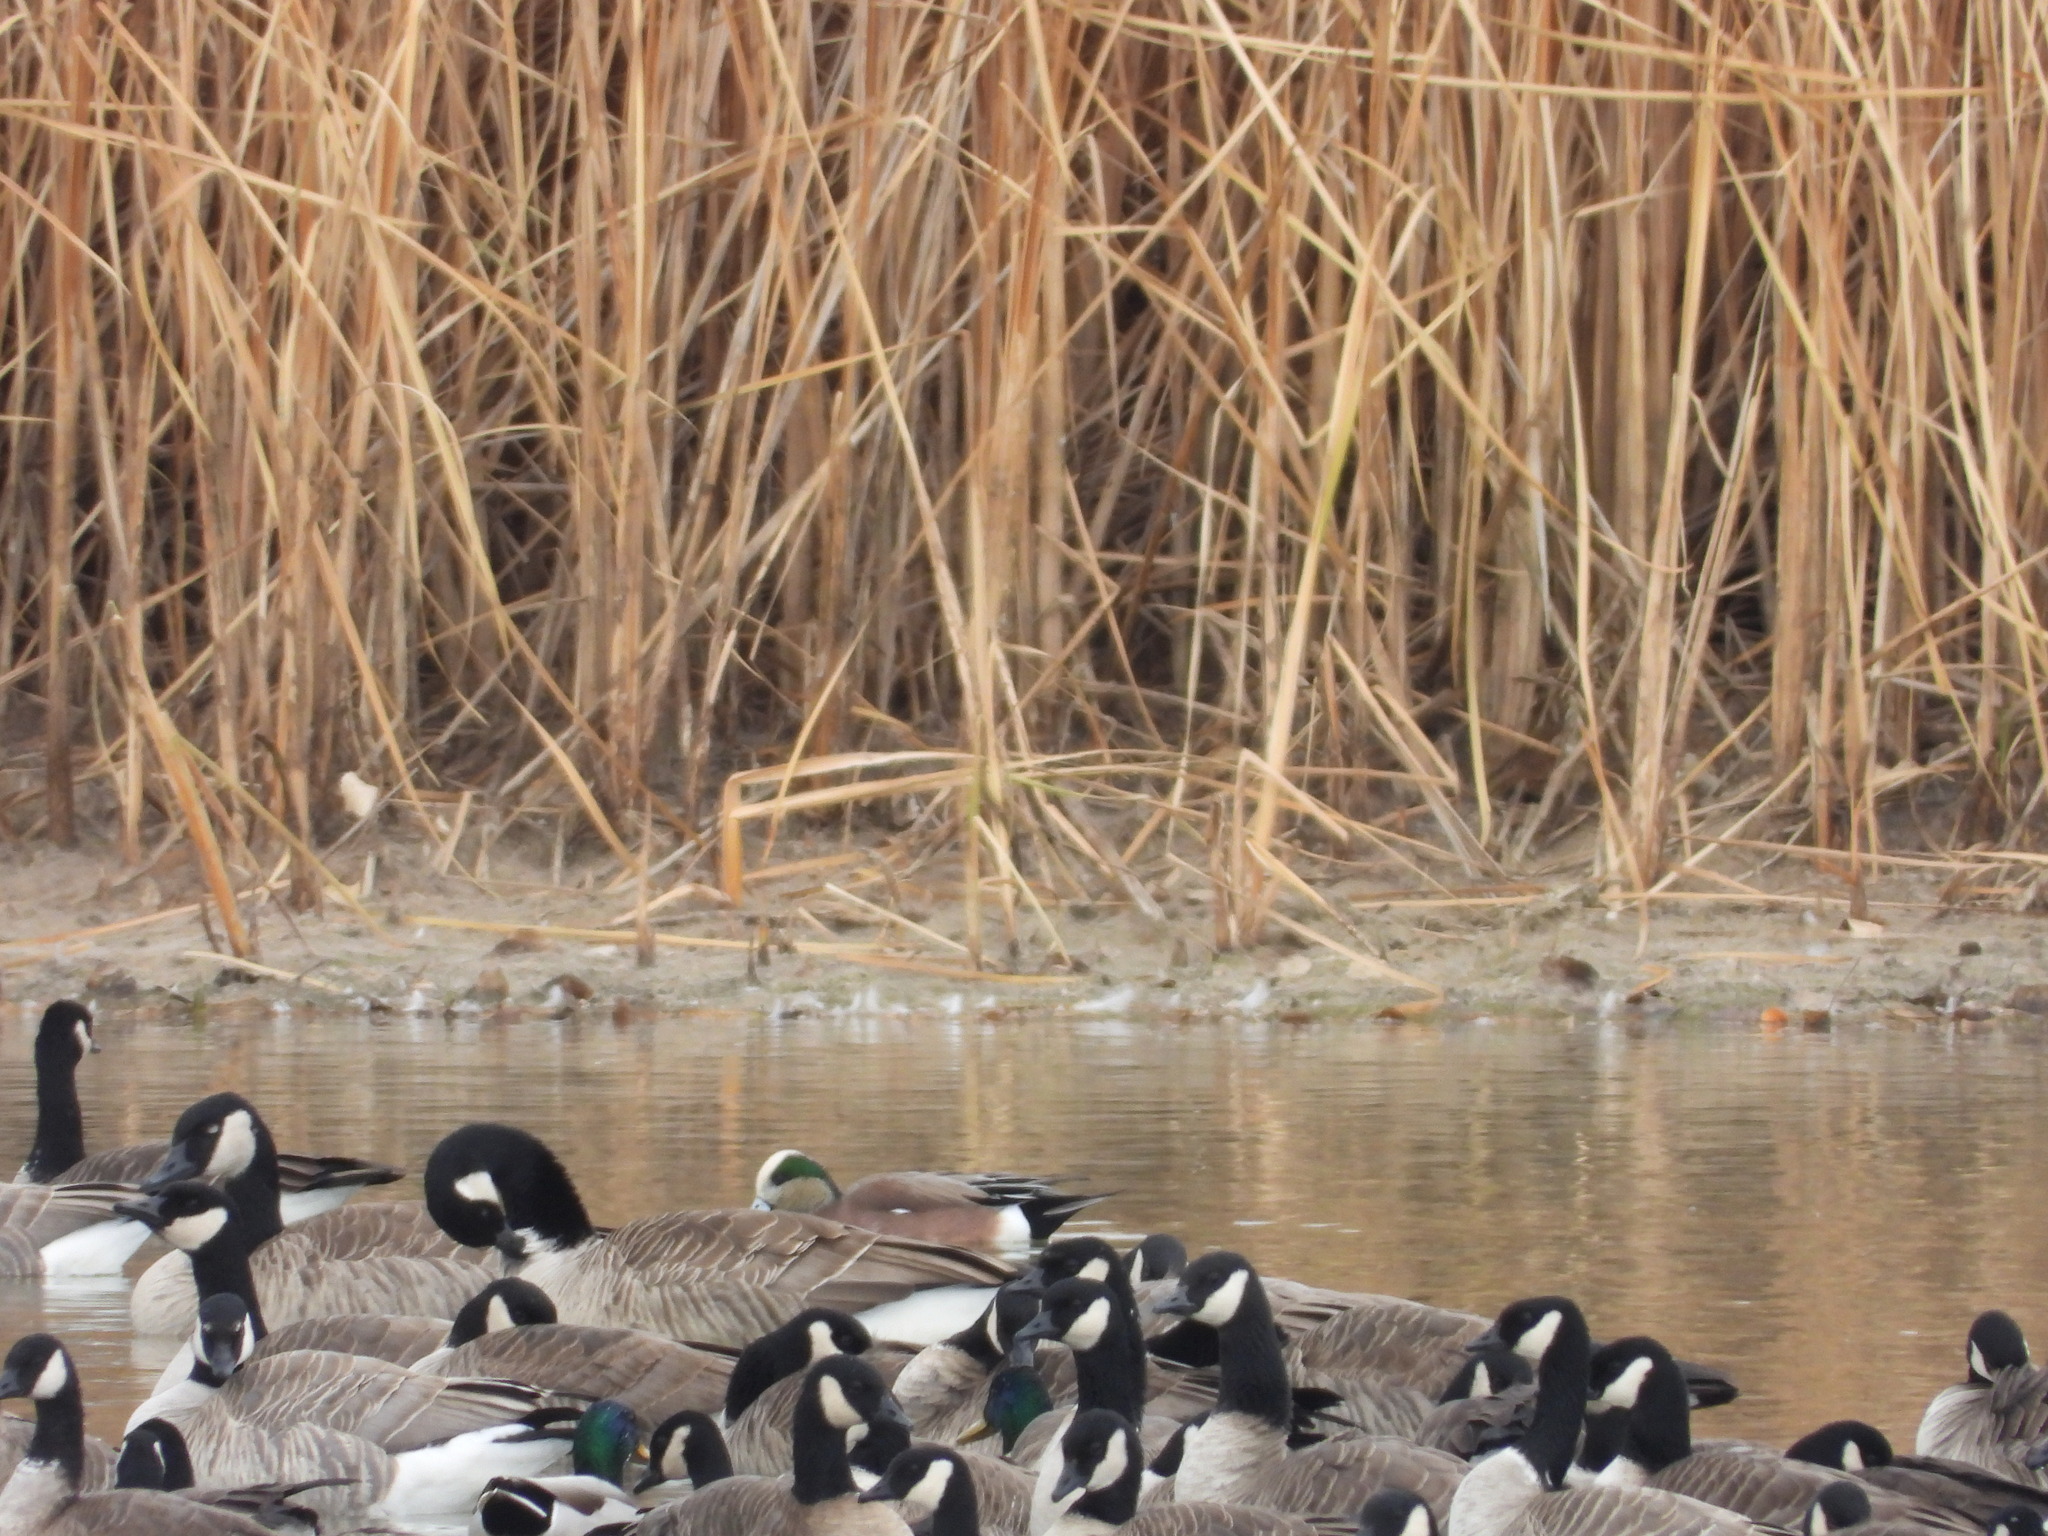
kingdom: Animalia
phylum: Chordata
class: Aves
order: Anseriformes
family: Anatidae
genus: Mareca
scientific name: Mareca americana
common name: American wigeon
